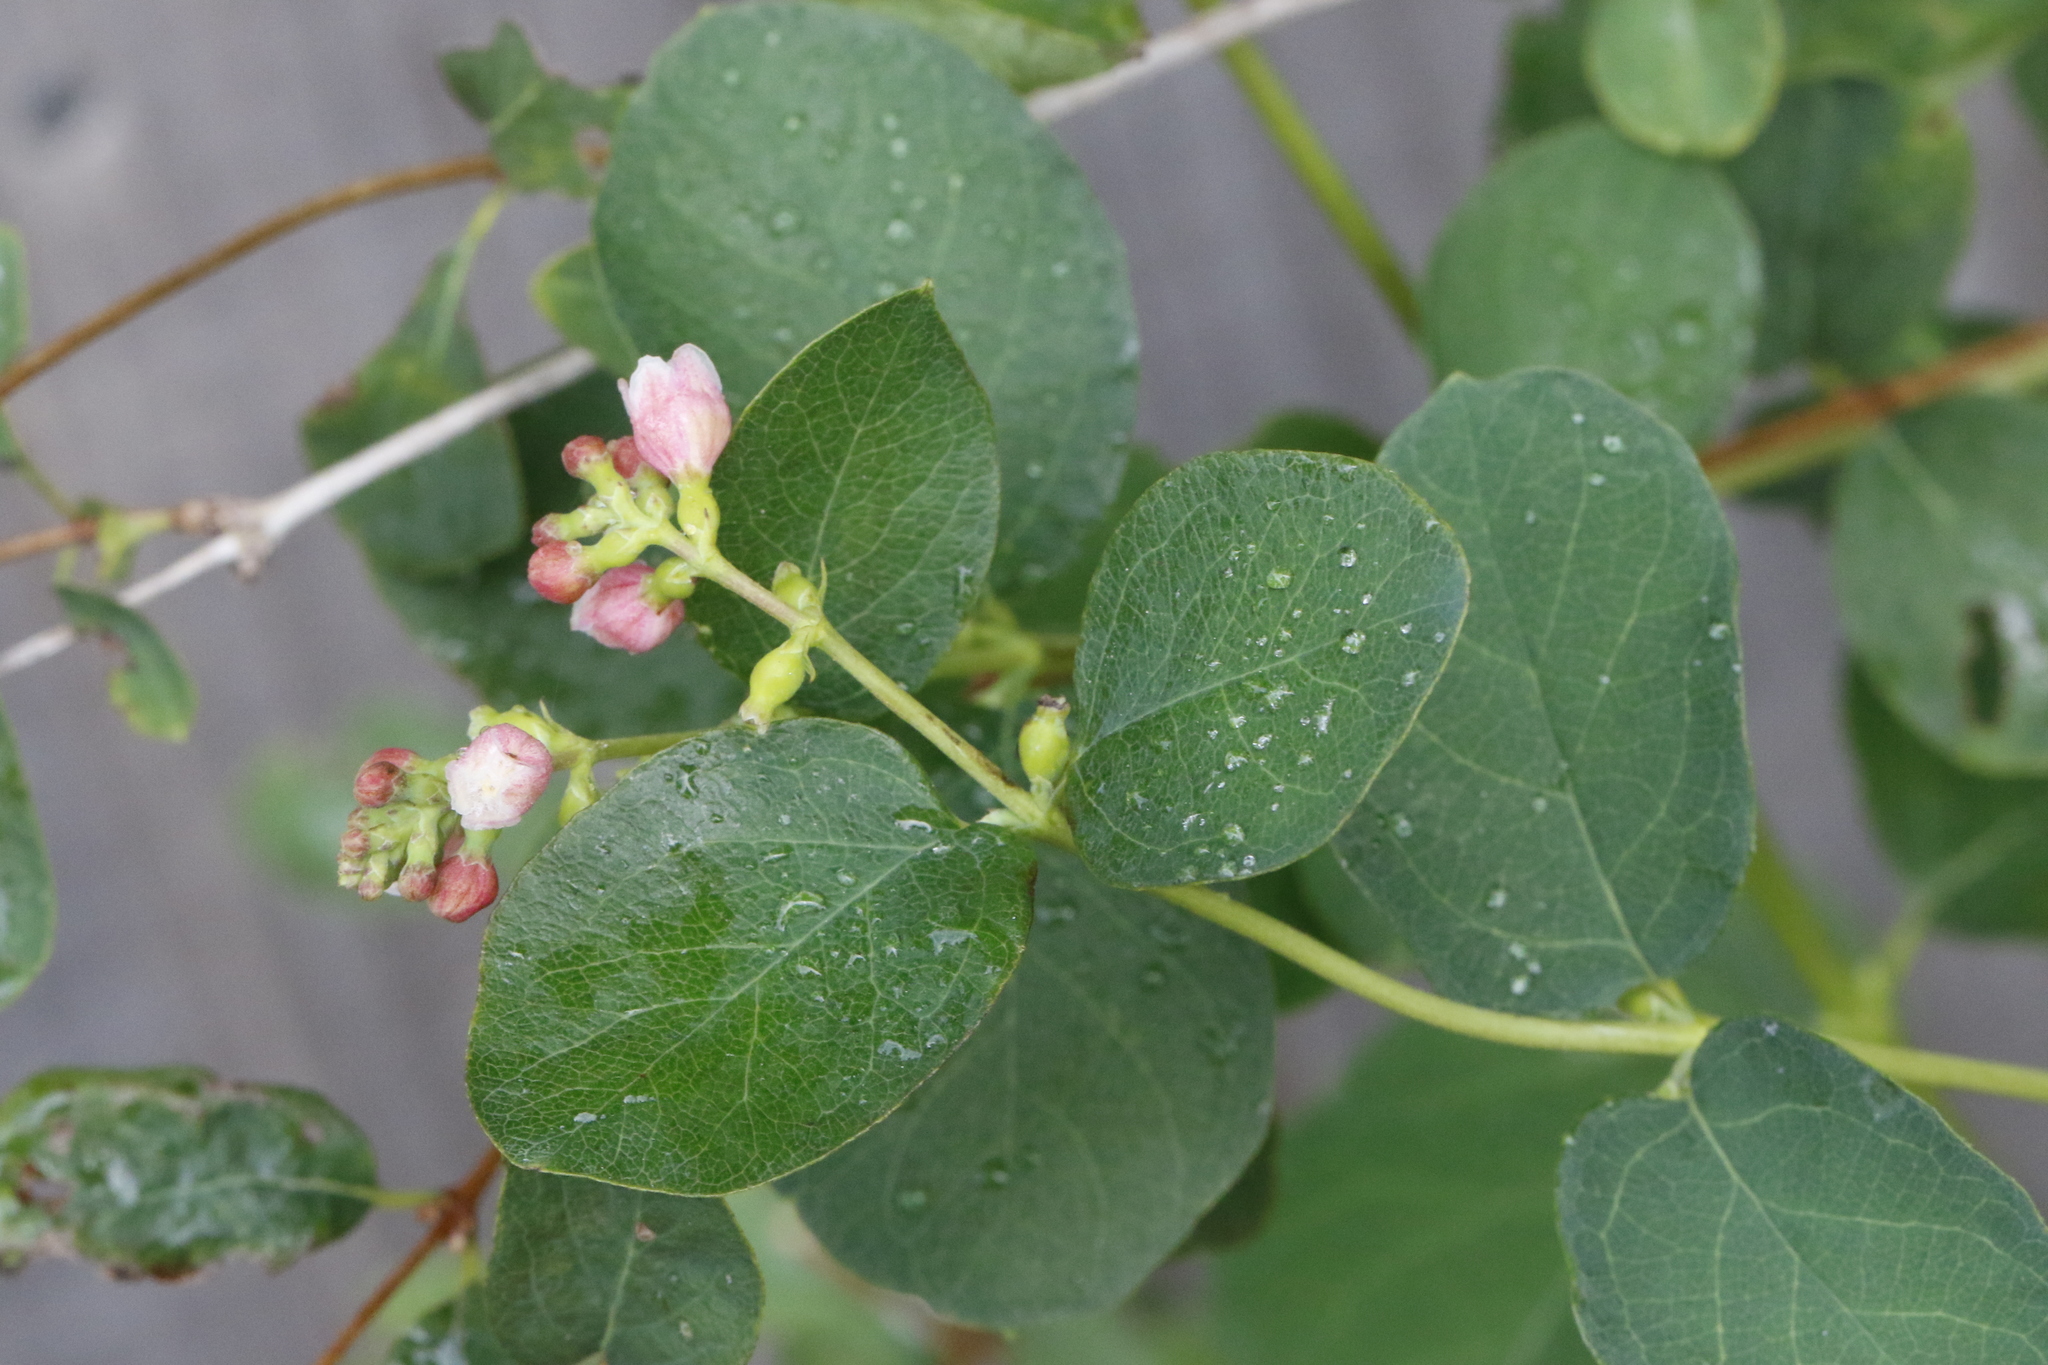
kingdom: Plantae
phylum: Tracheophyta
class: Magnoliopsida
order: Dipsacales
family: Caprifoliaceae
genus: Symphoricarpos
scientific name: Symphoricarpos albus
